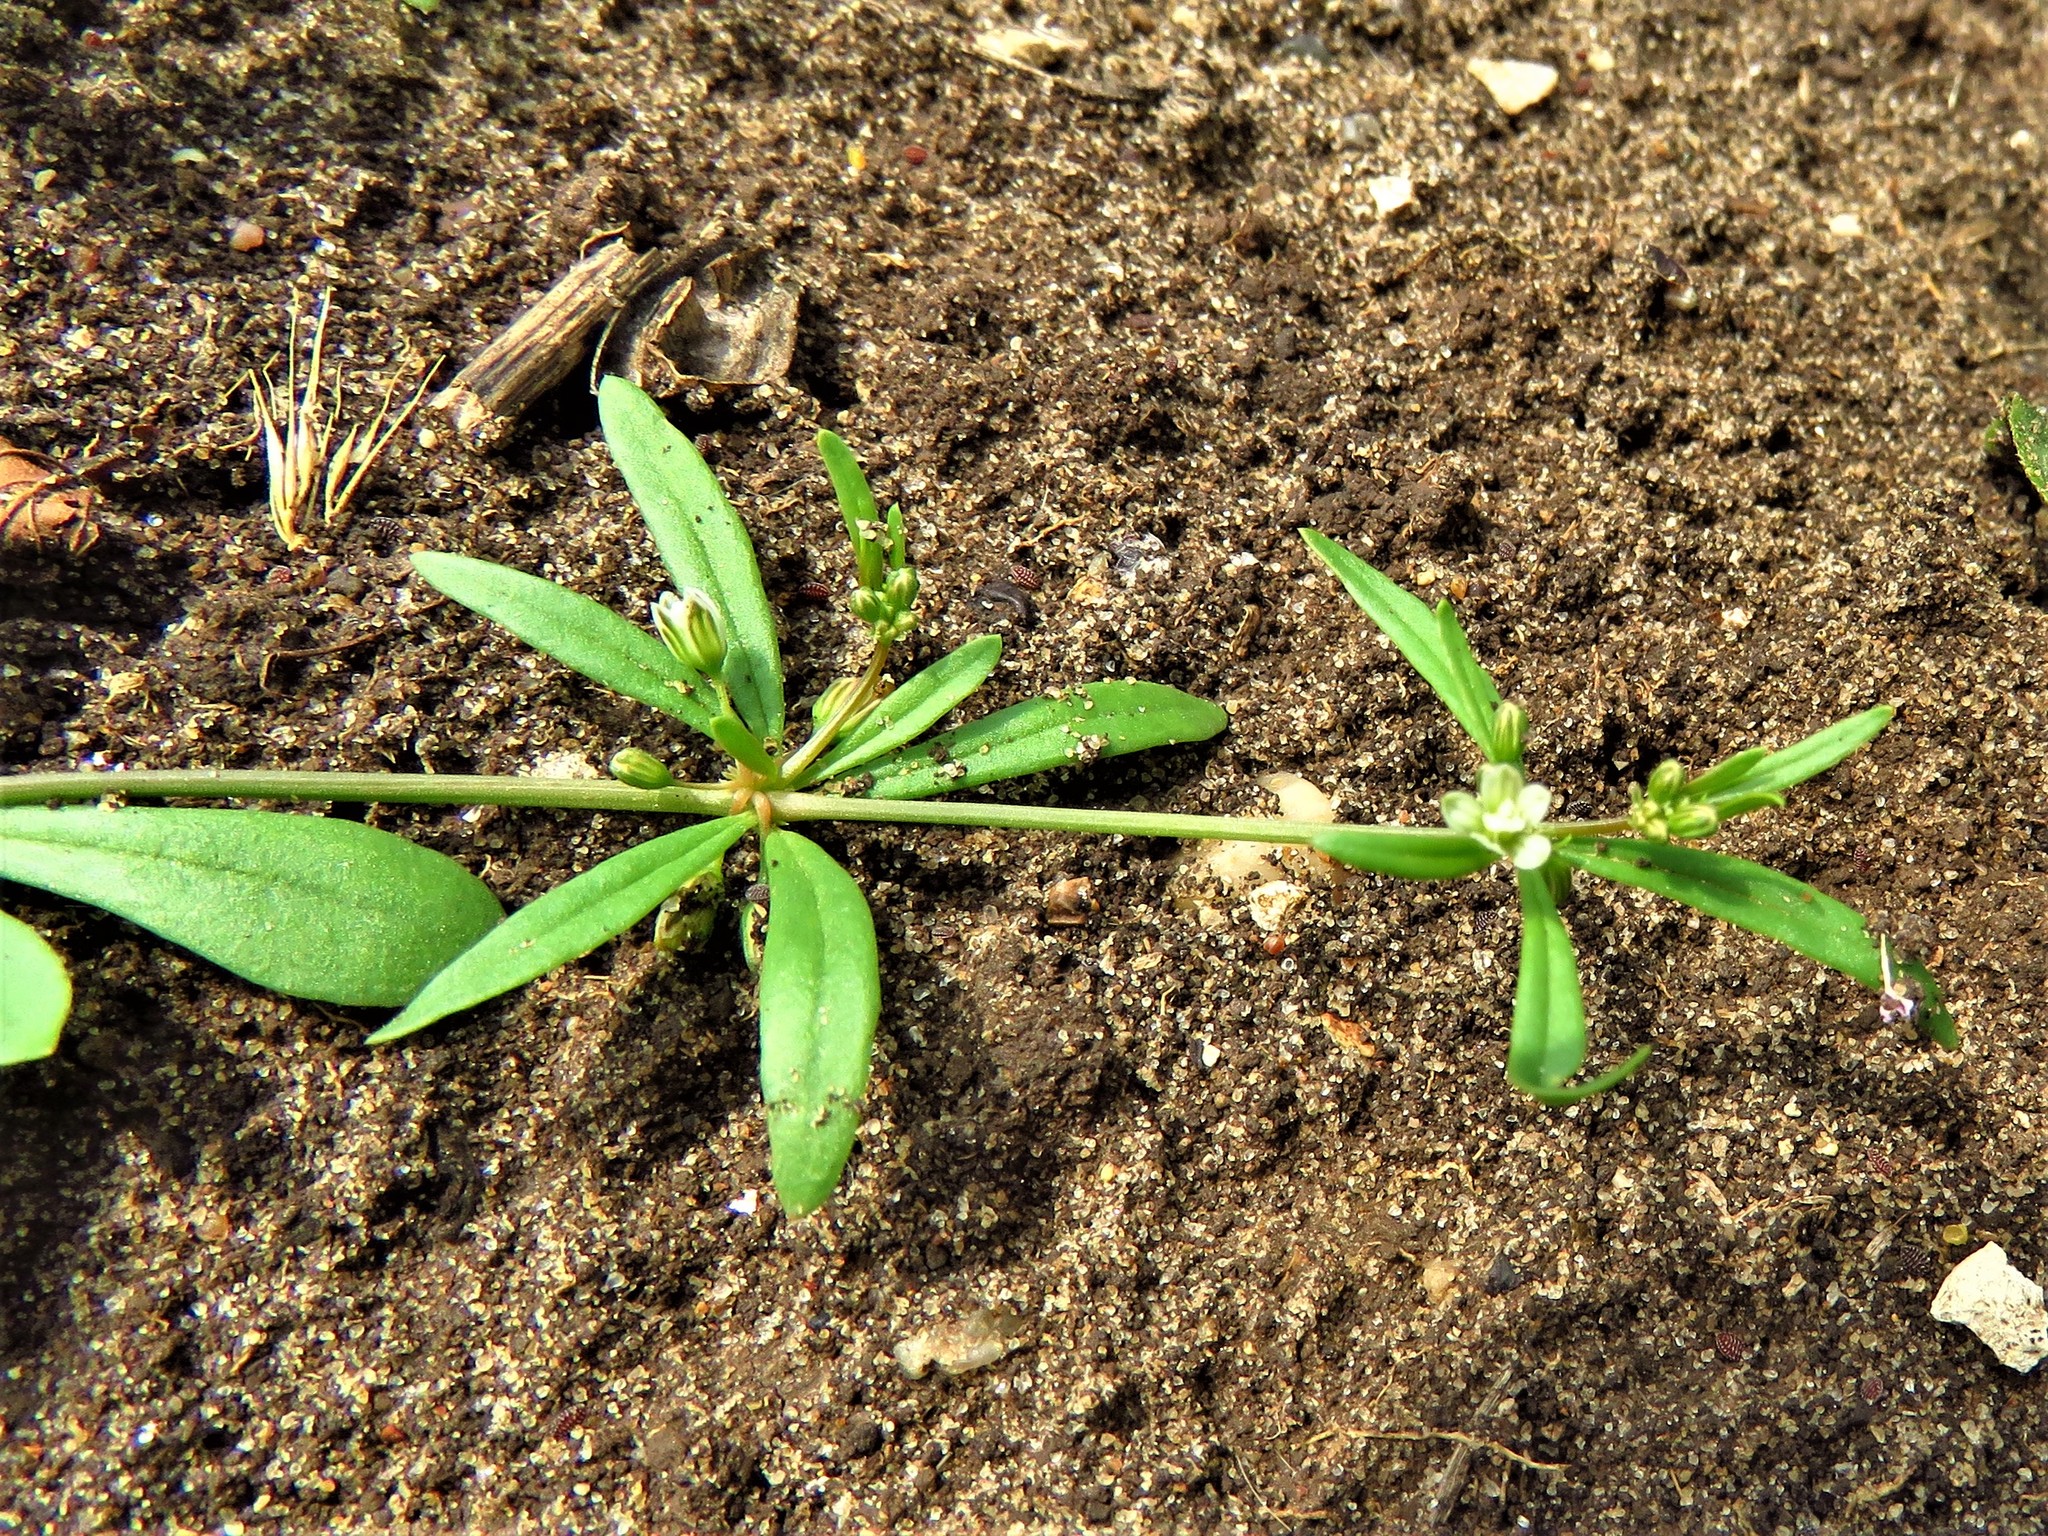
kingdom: Plantae
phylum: Tracheophyta
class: Magnoliopsida
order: Caryophyllales
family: Molluginaceae
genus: Mollugo
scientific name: Mollugo verticillata
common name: Green carpetweed
